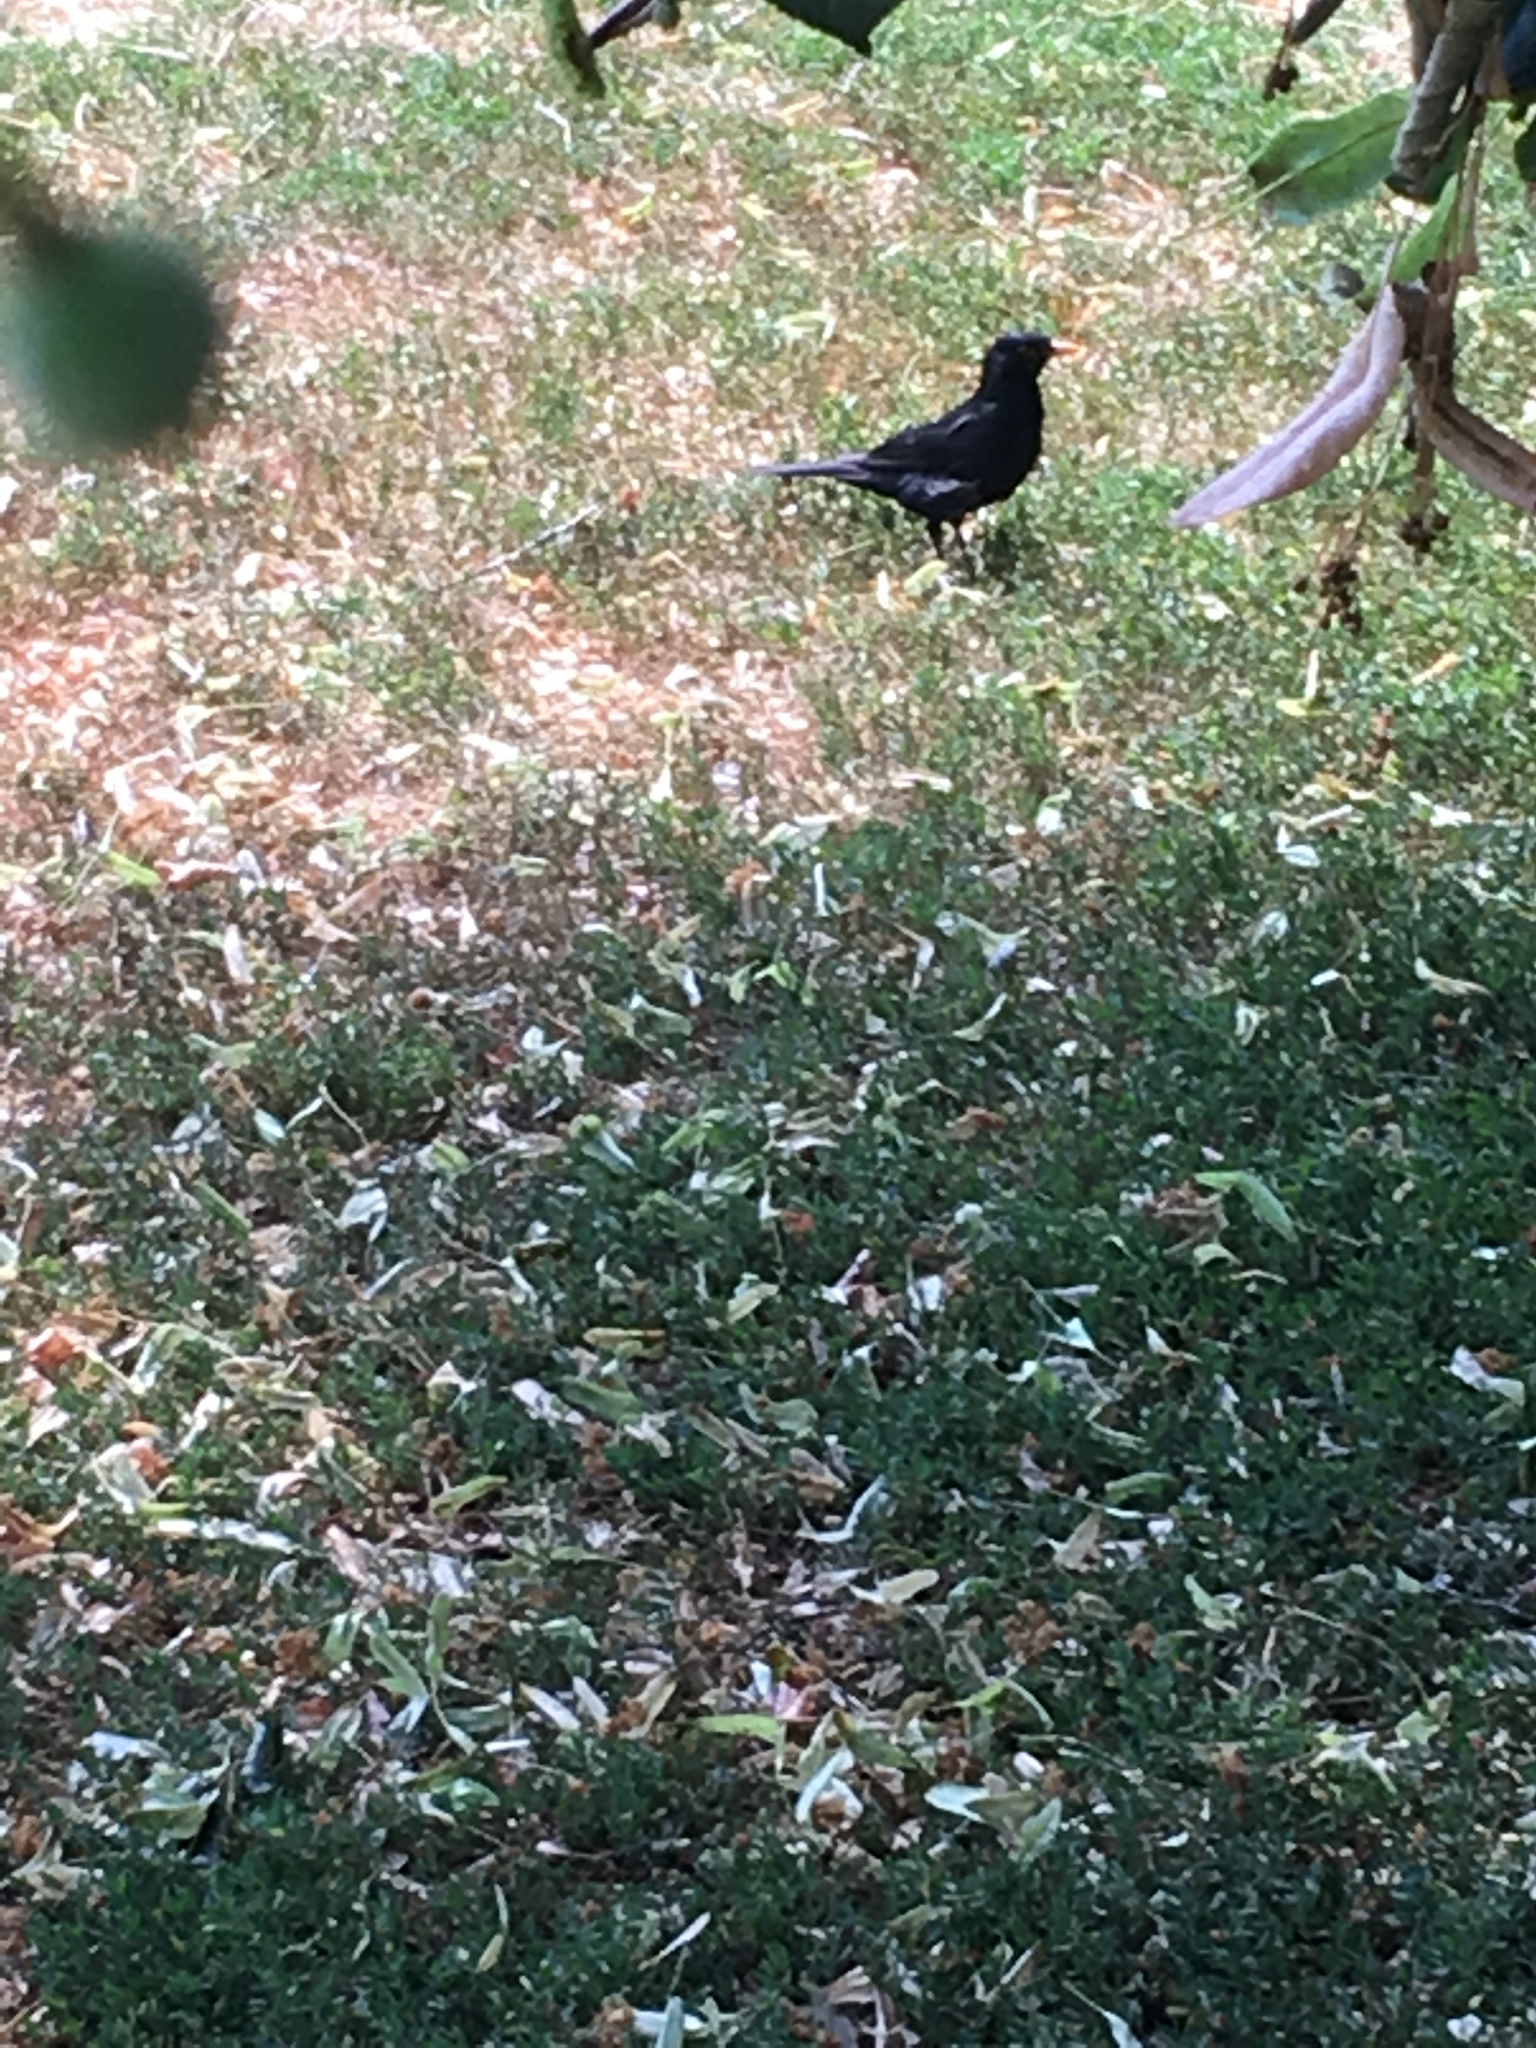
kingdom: Animalia
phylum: Chordata
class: Aves
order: Passeriformes
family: Turdidae
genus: Turdus
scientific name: Turdus merula
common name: Common blackbird
